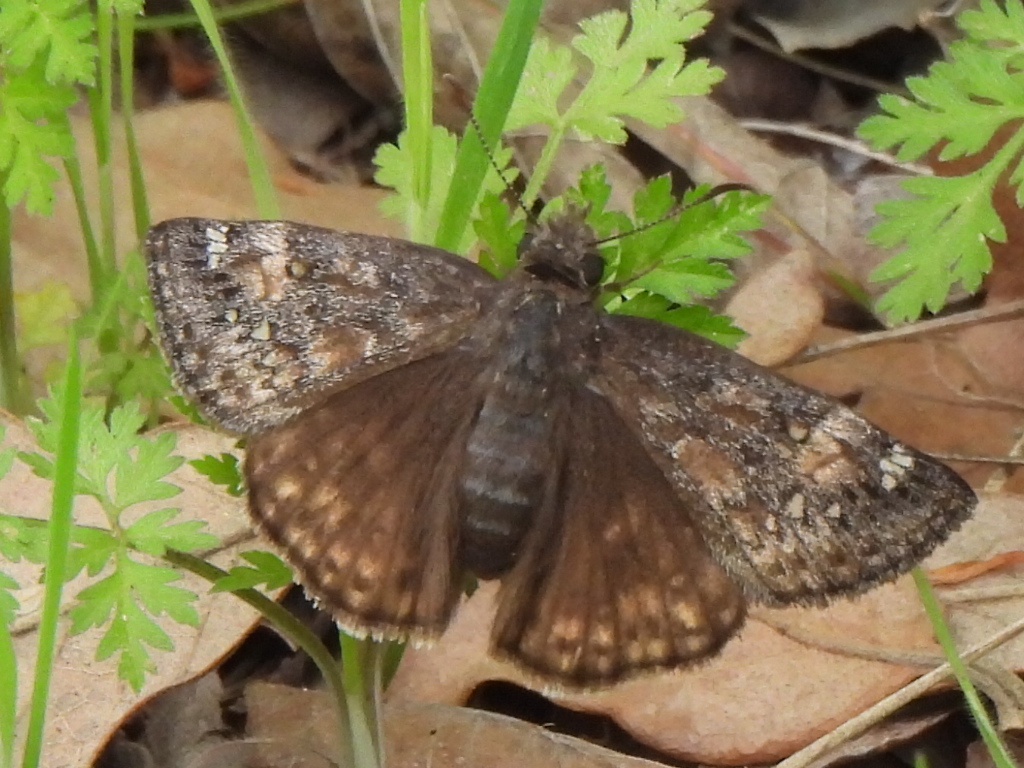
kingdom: Animalia
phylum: Arthropoda
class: Insecta
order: Lepidoptera
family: Hesperiidae
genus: Erynnis
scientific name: Erynnis juvenalis
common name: Juvenal's duskywing
